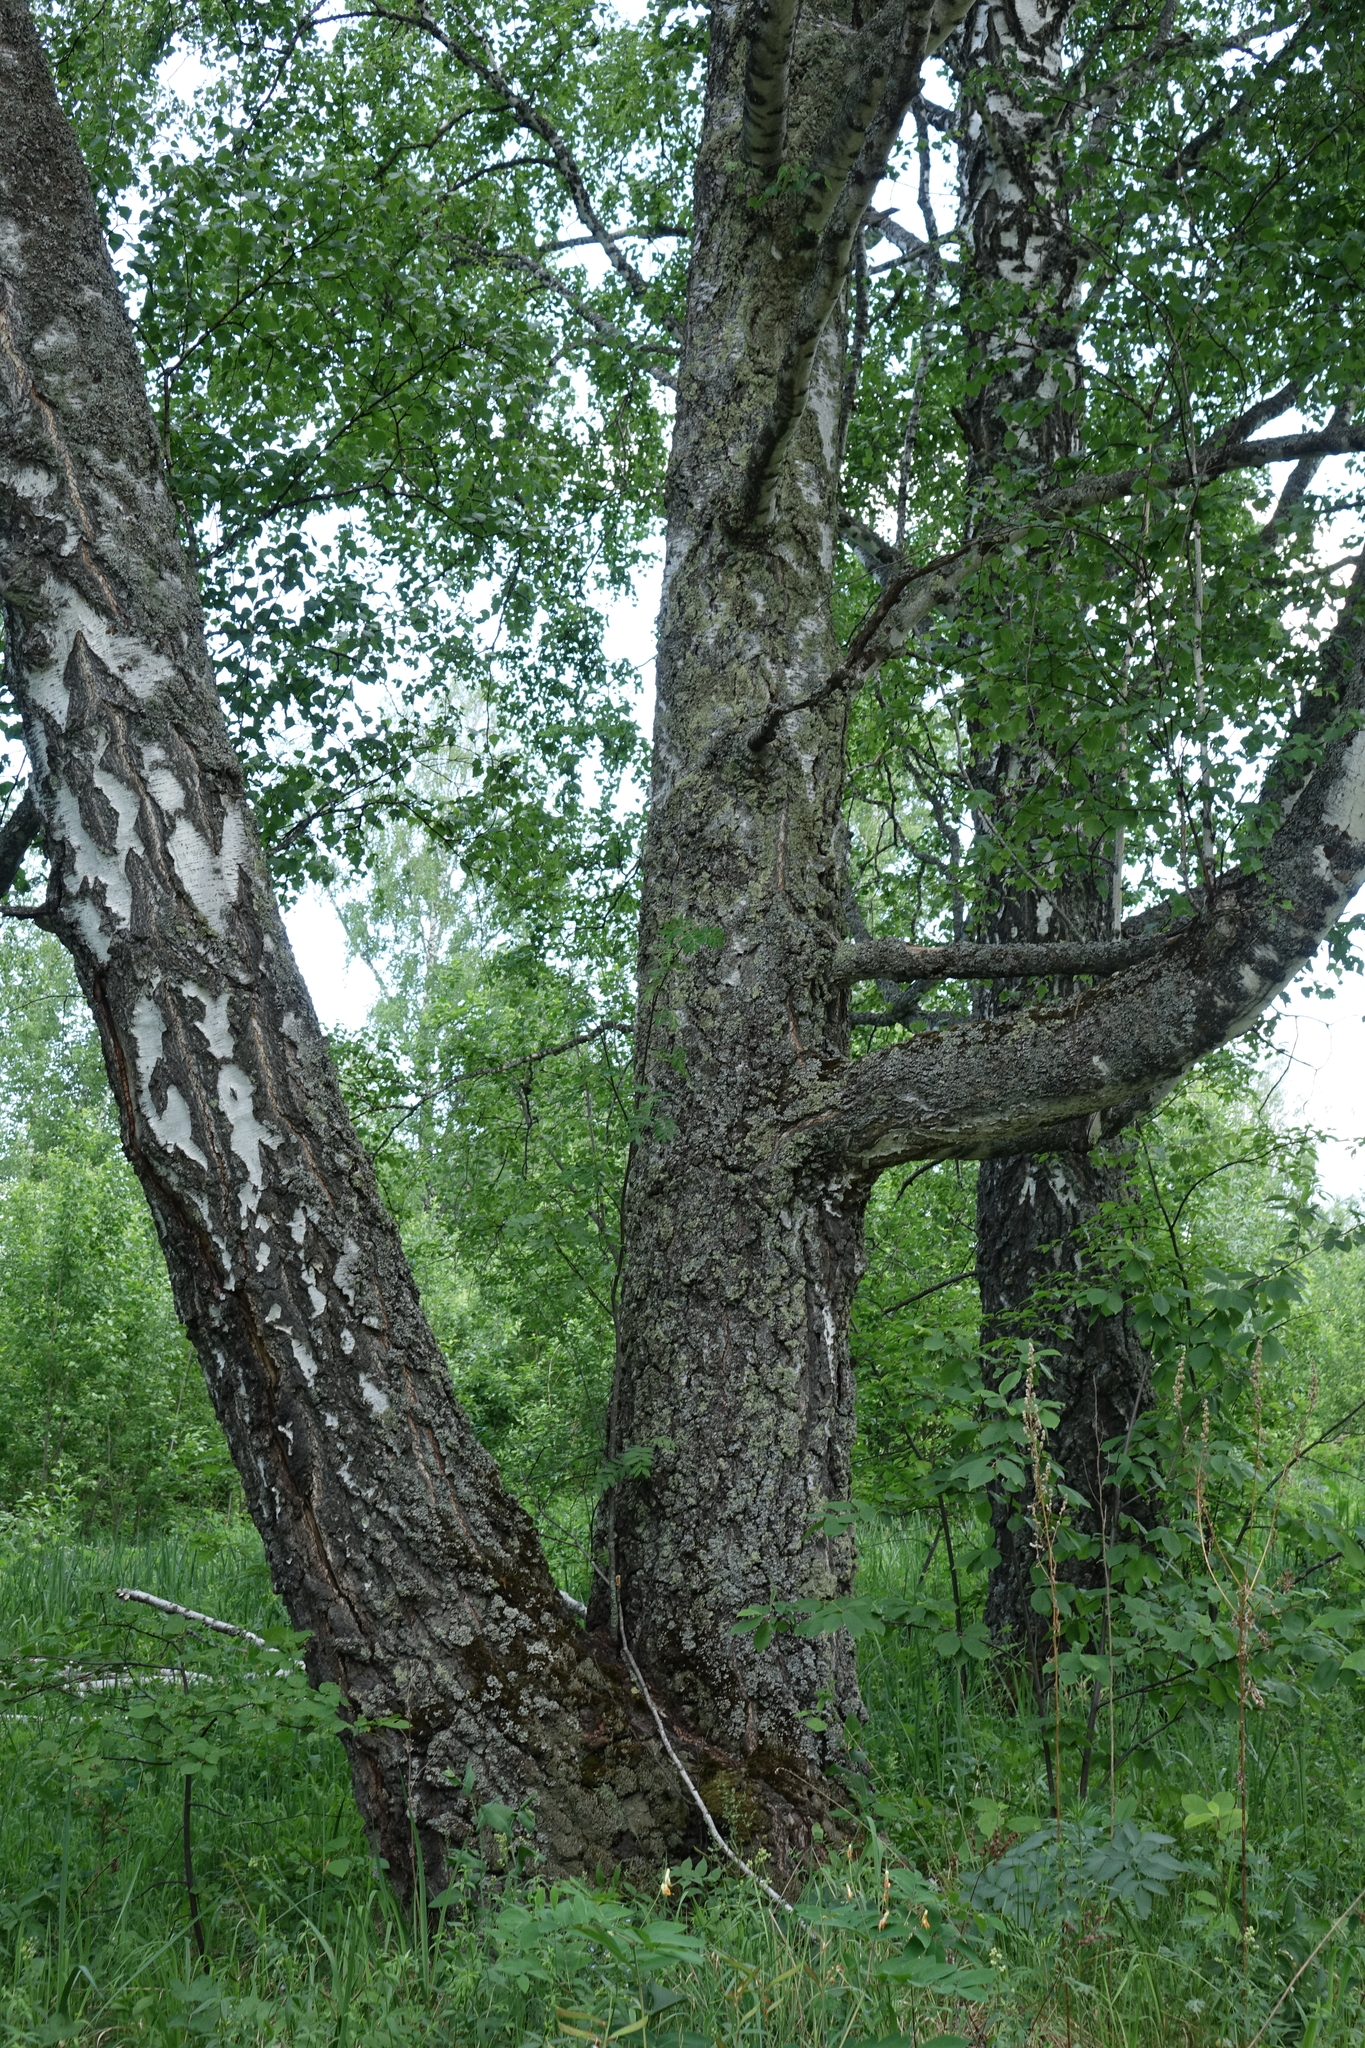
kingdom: Plantae
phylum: Tracheophyta
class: Magnoliopsida
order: Fagales
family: Betulaceae
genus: Betula
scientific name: Betula pendula
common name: Silver birch
